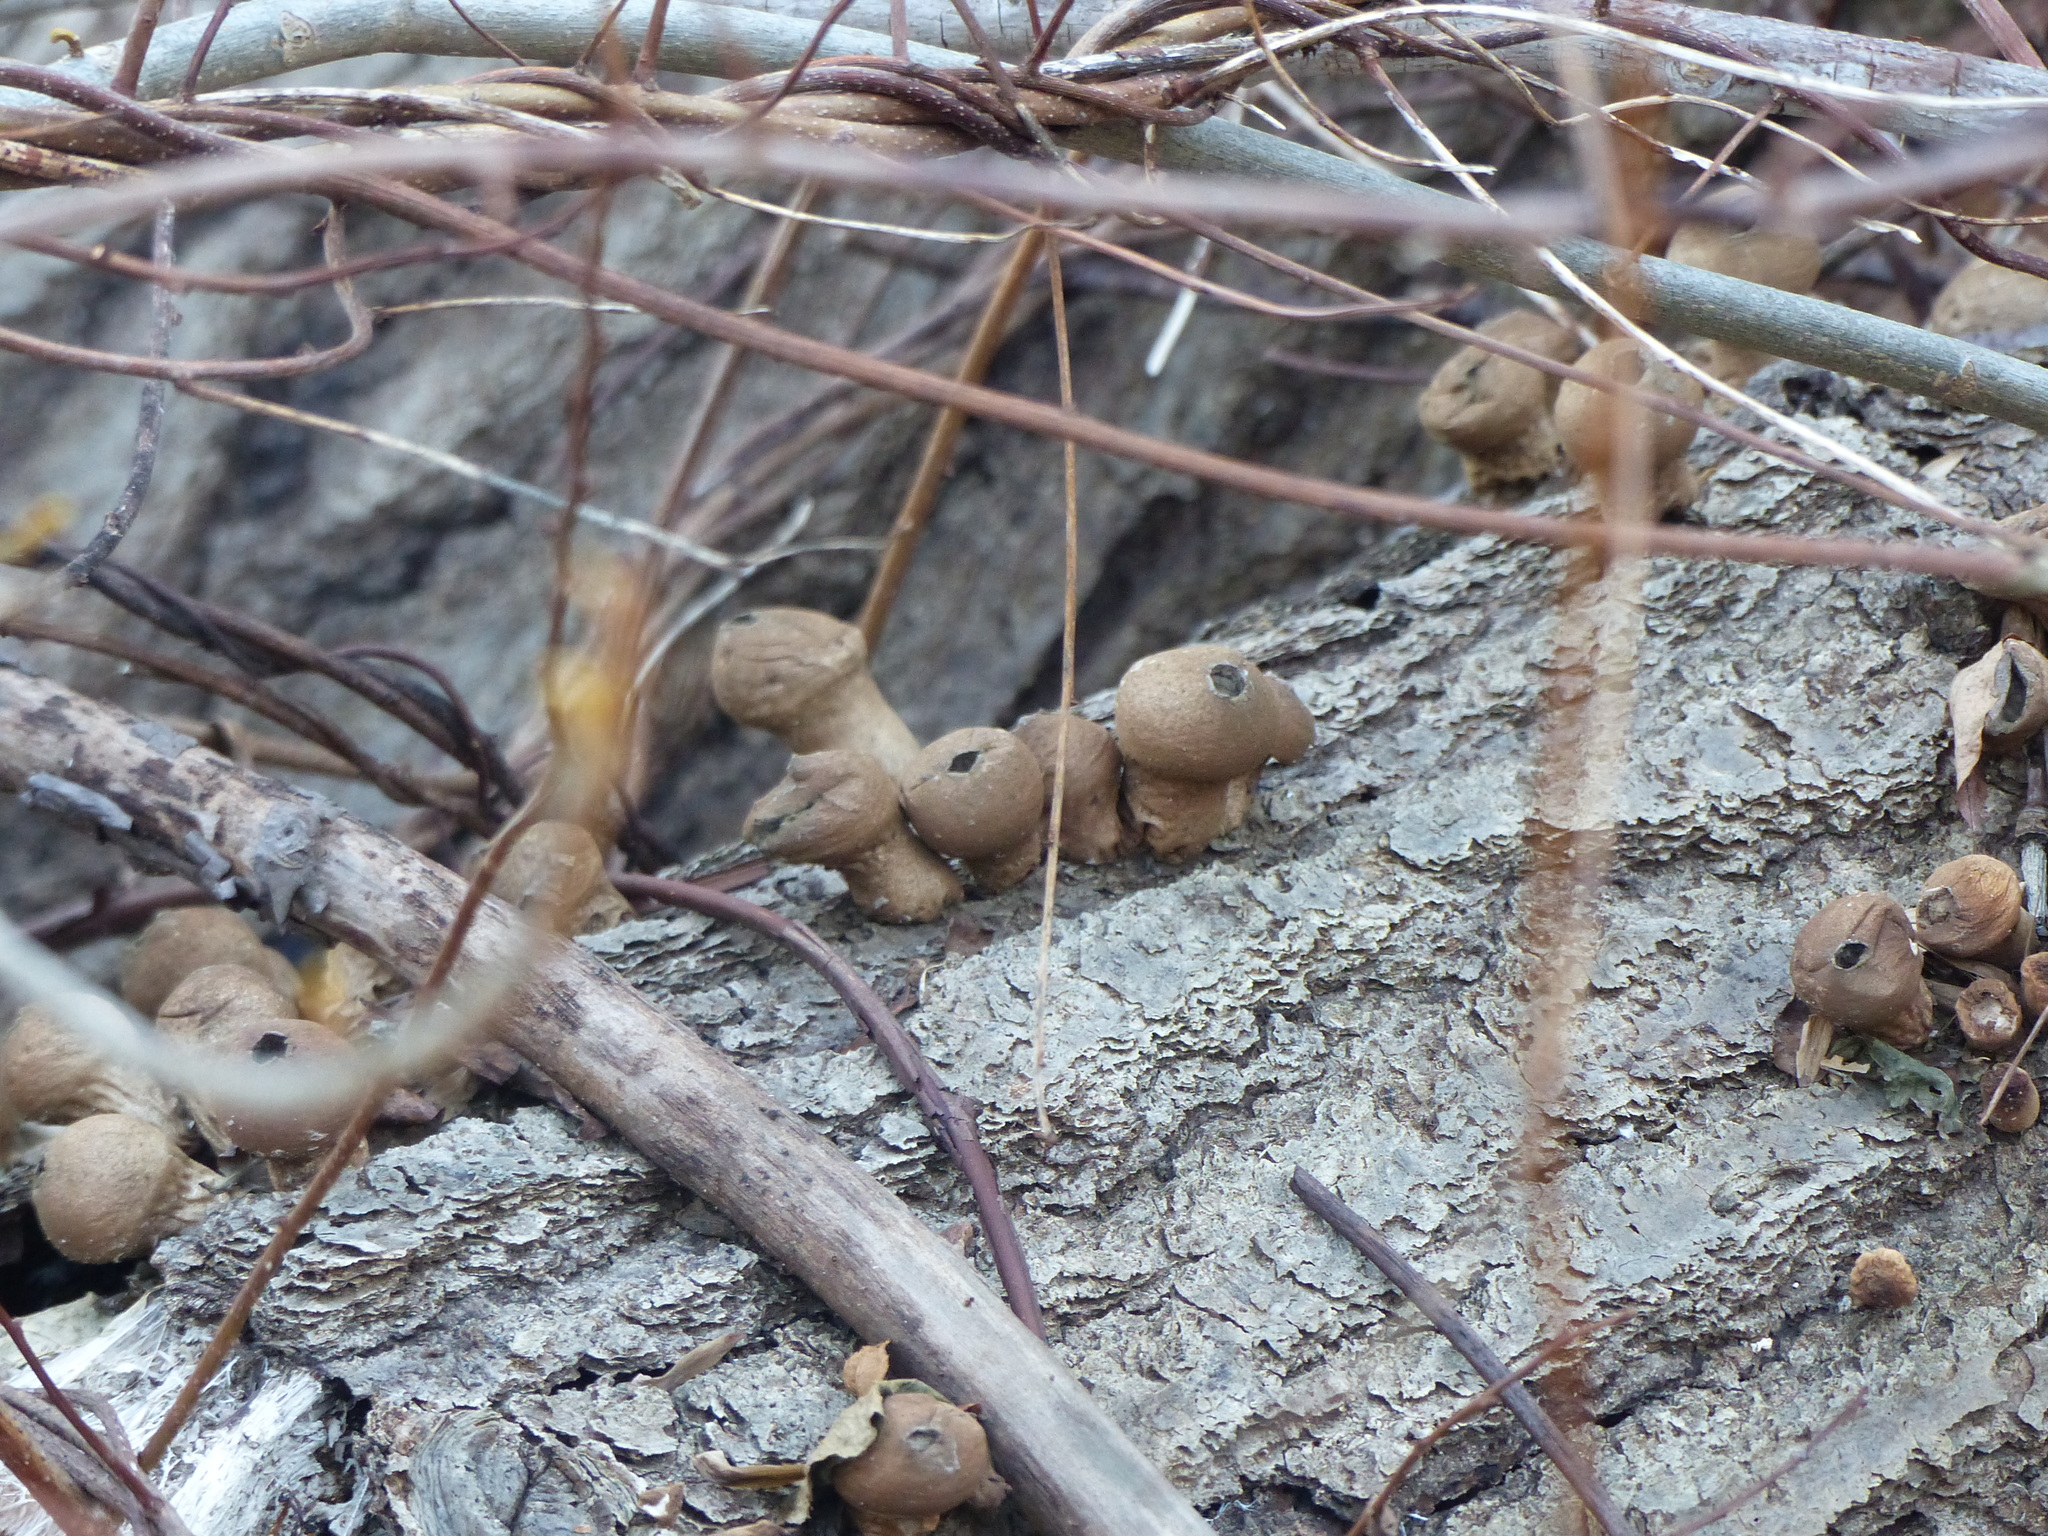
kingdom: Fungi
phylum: Basidiomycota
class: Agaricomycetes
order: Agaricales
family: Lycoperdaceae
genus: Apioperdon
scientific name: Apioperdon pyriforme
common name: Pear-shaped puffball
